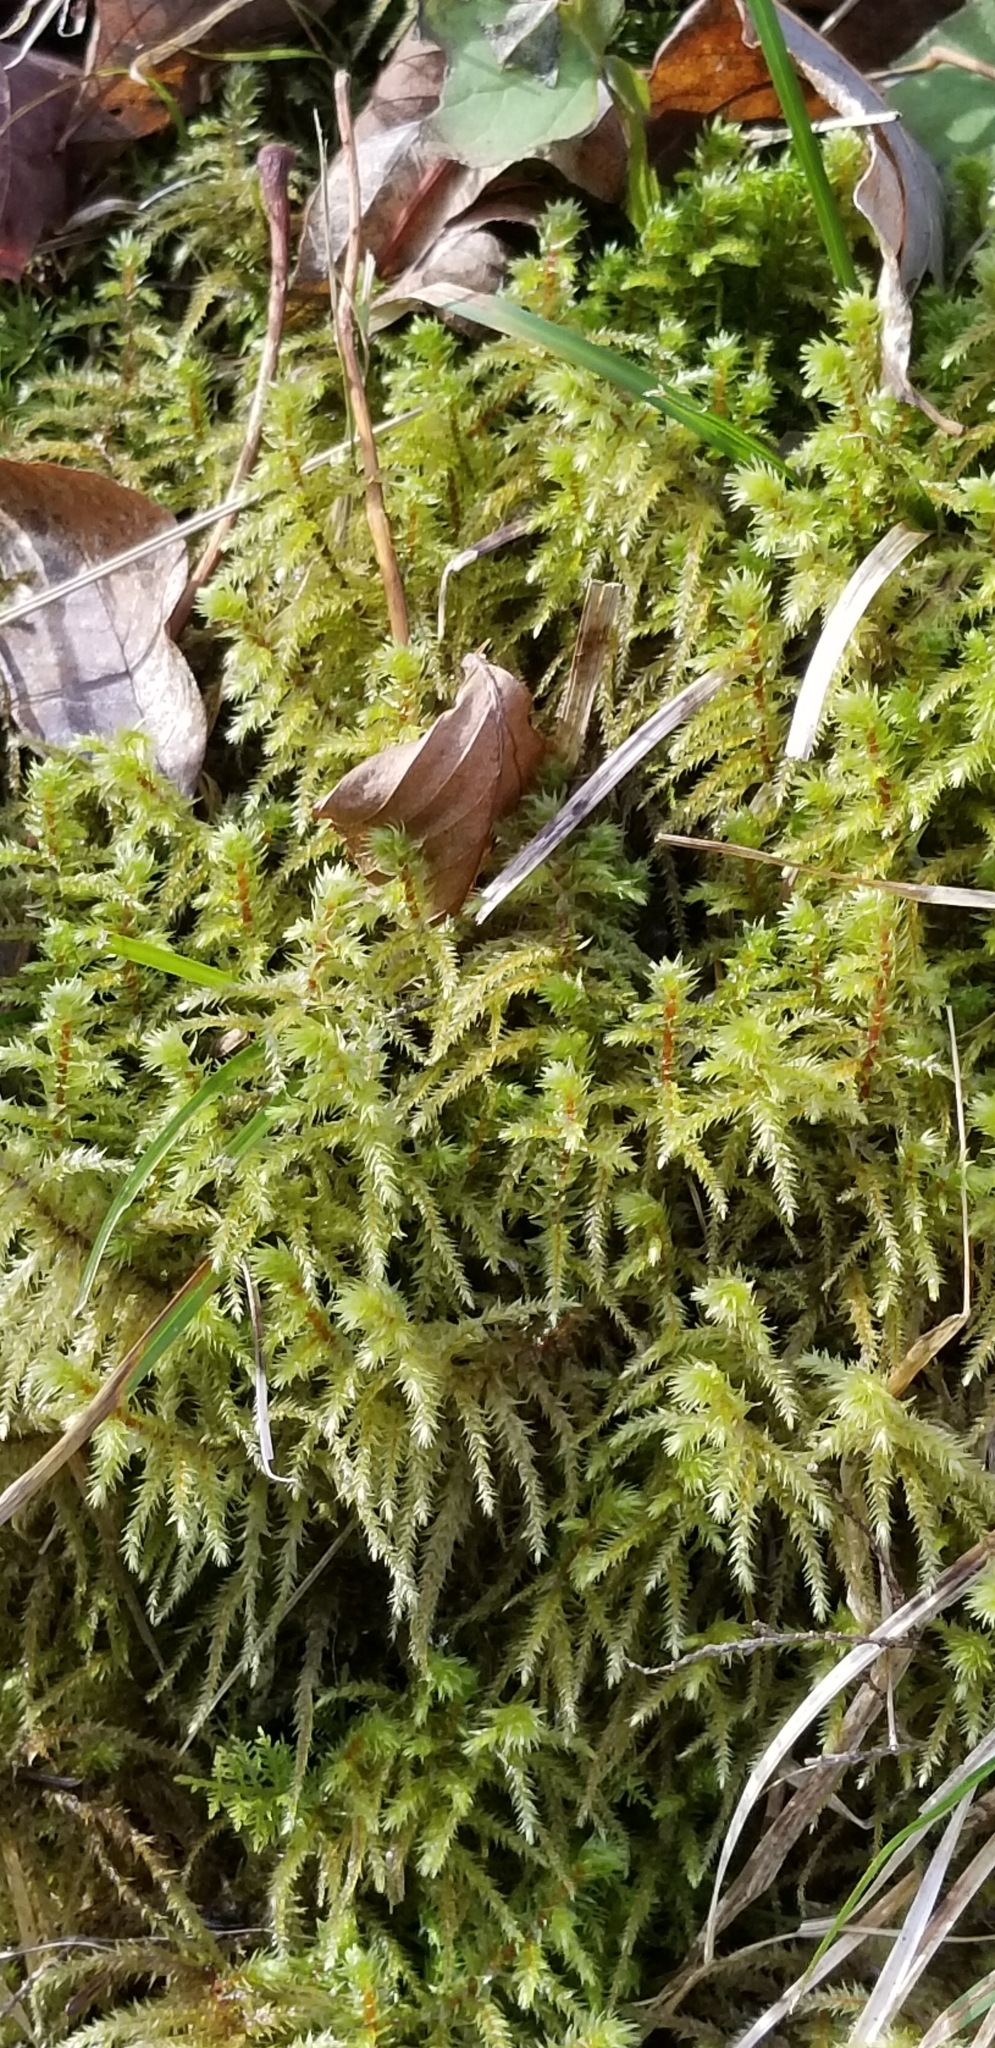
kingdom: Plantae
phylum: Bryophyta
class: Bryopsida
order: Hypnales
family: Hylocomiaceae
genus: Hylocomiadelphus
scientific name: Hylocomiadelphus triquetrus
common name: Rough goose neck moss
